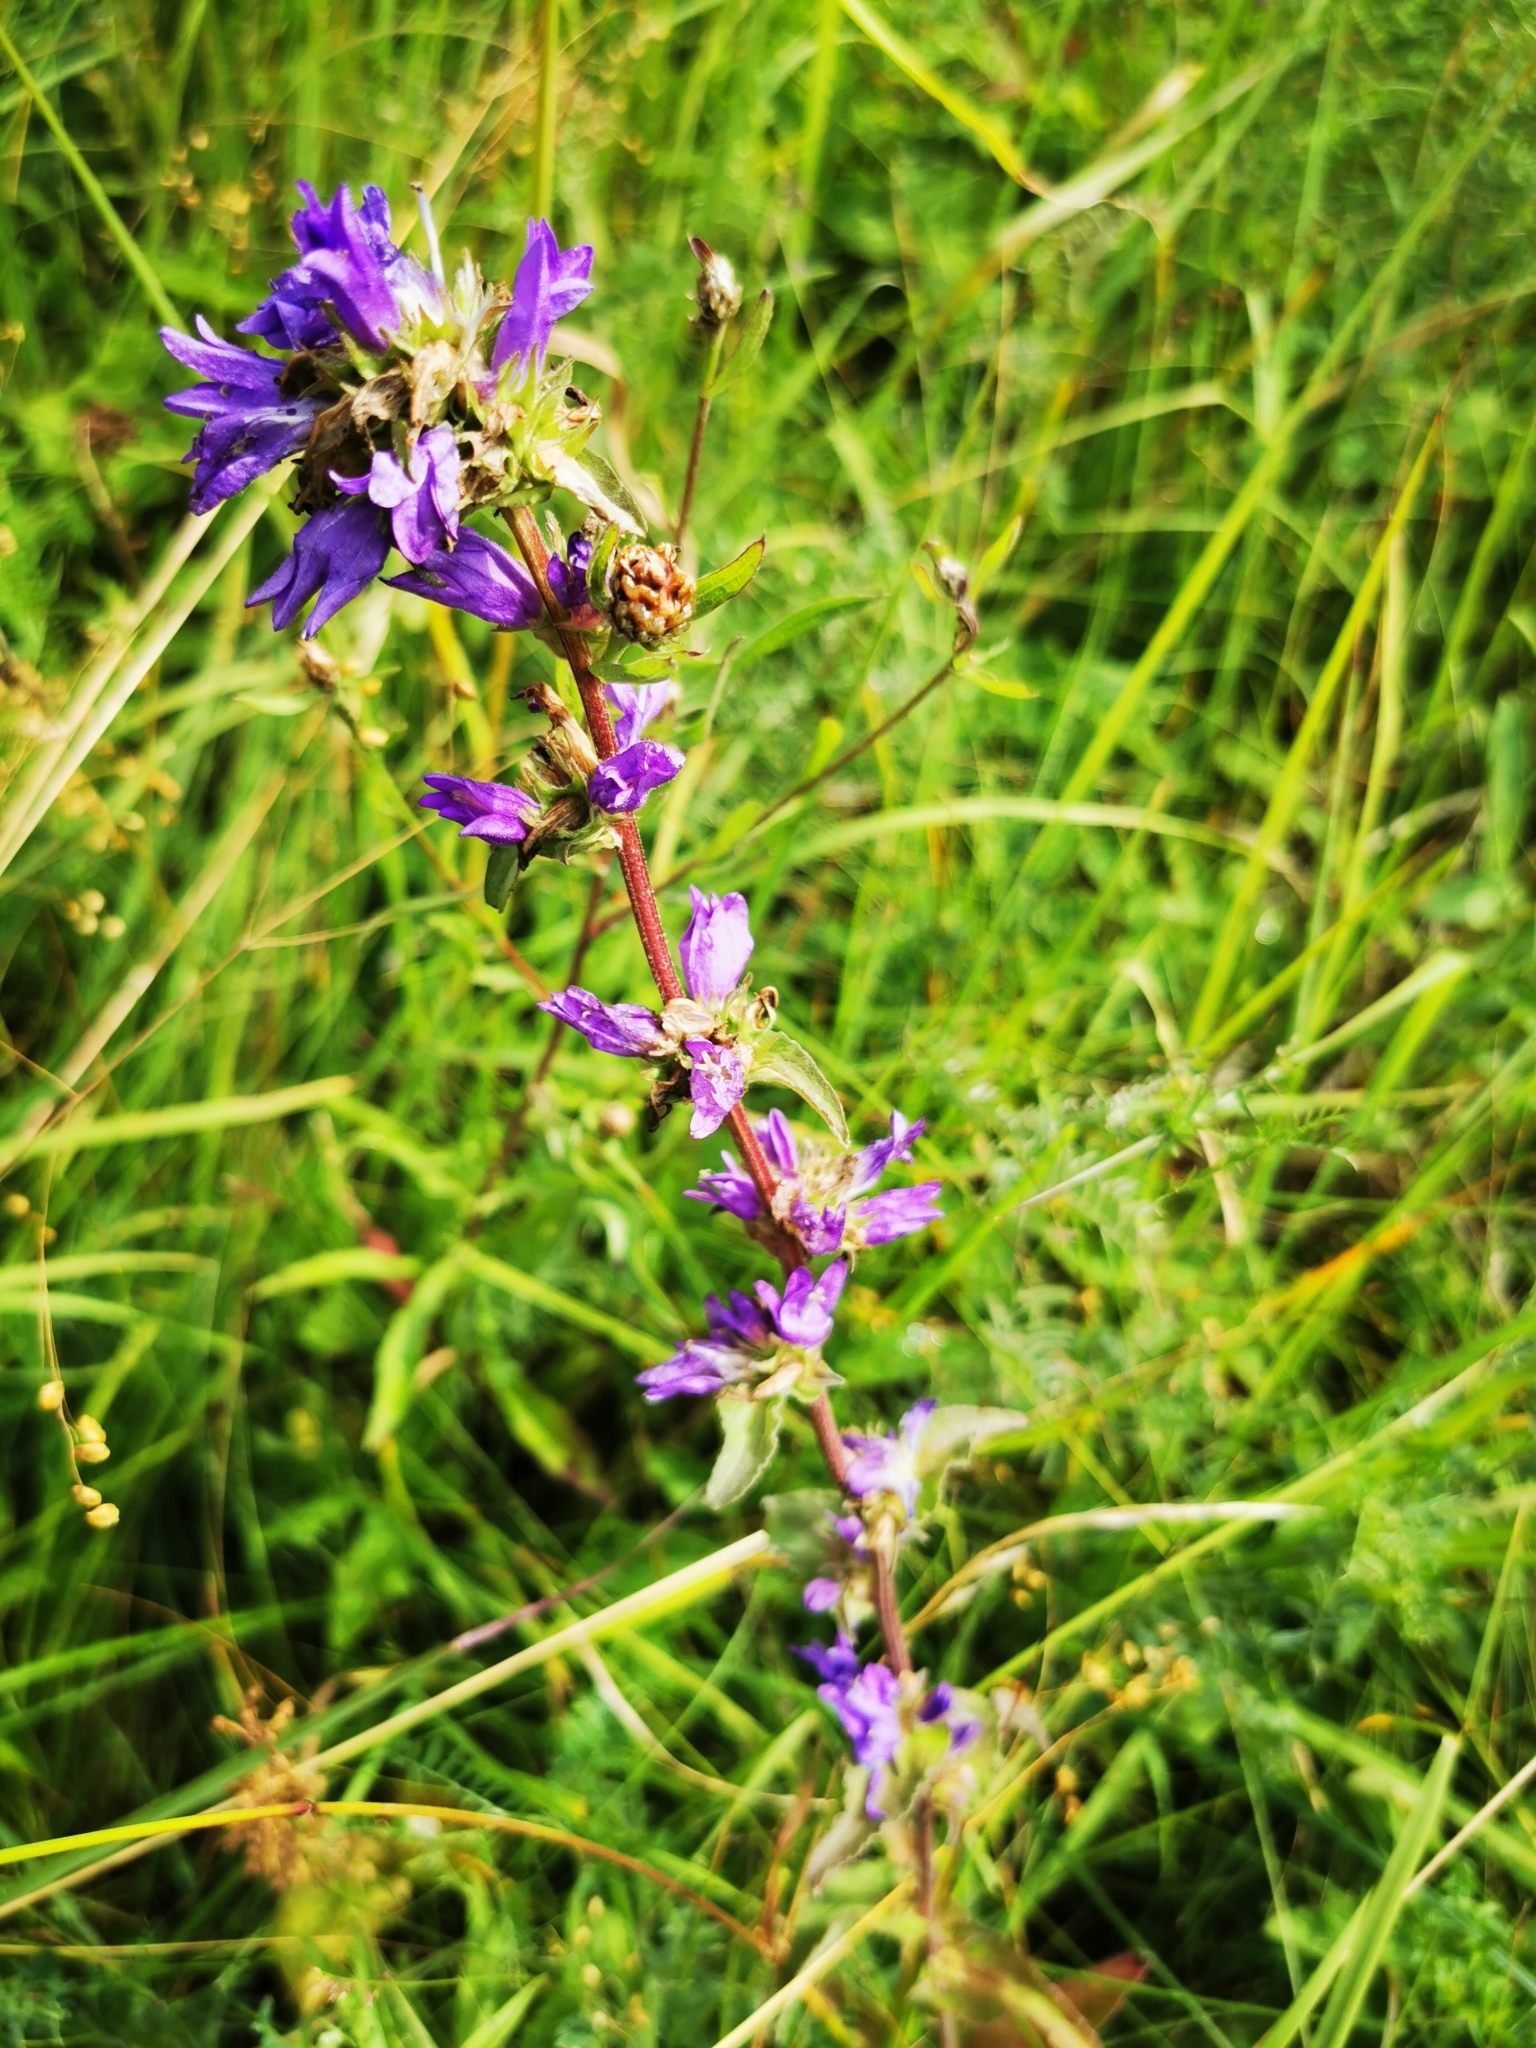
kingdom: Plantae
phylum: Tracheophyta
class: Magnoliopsida
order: Asterales
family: Campanulaceae
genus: Campanula
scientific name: Campanula glomerata
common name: Clustered bellflower
